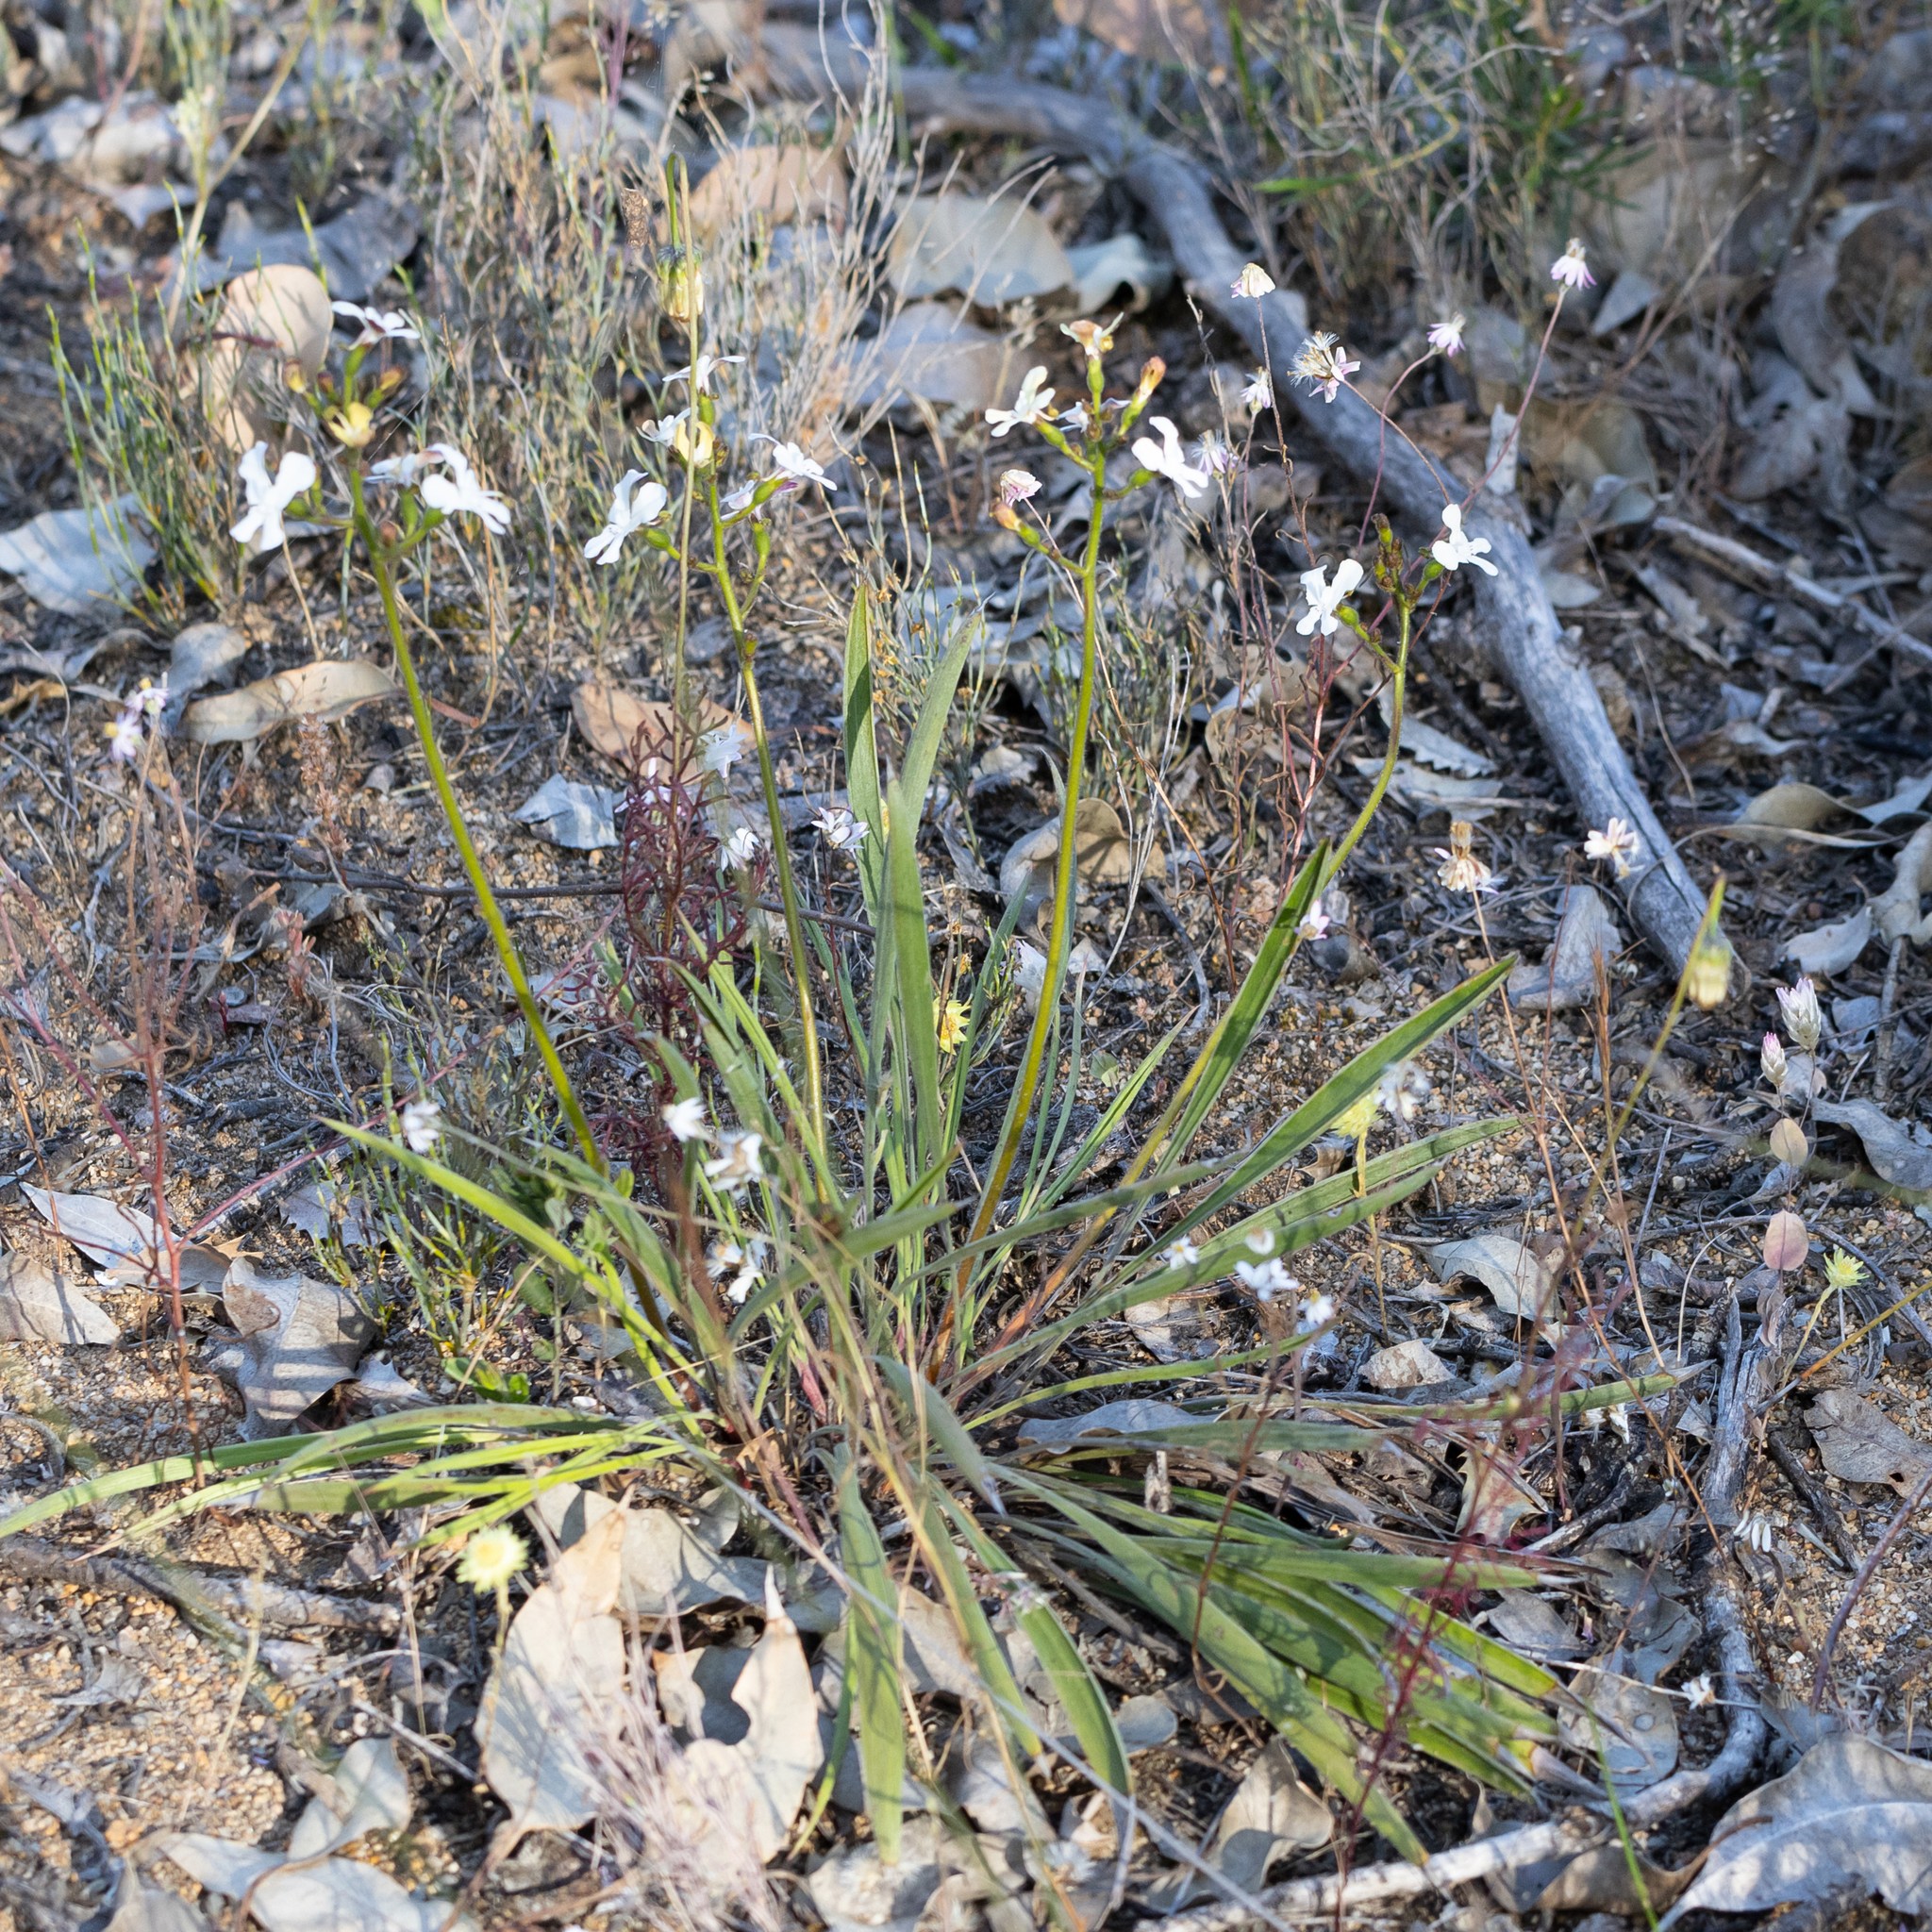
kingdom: Plantae
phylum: Tracheophyta
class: Magnoliopsida
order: Asterales
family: Stylidiaceae
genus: Stylidium
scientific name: Stylidium caricifolium
